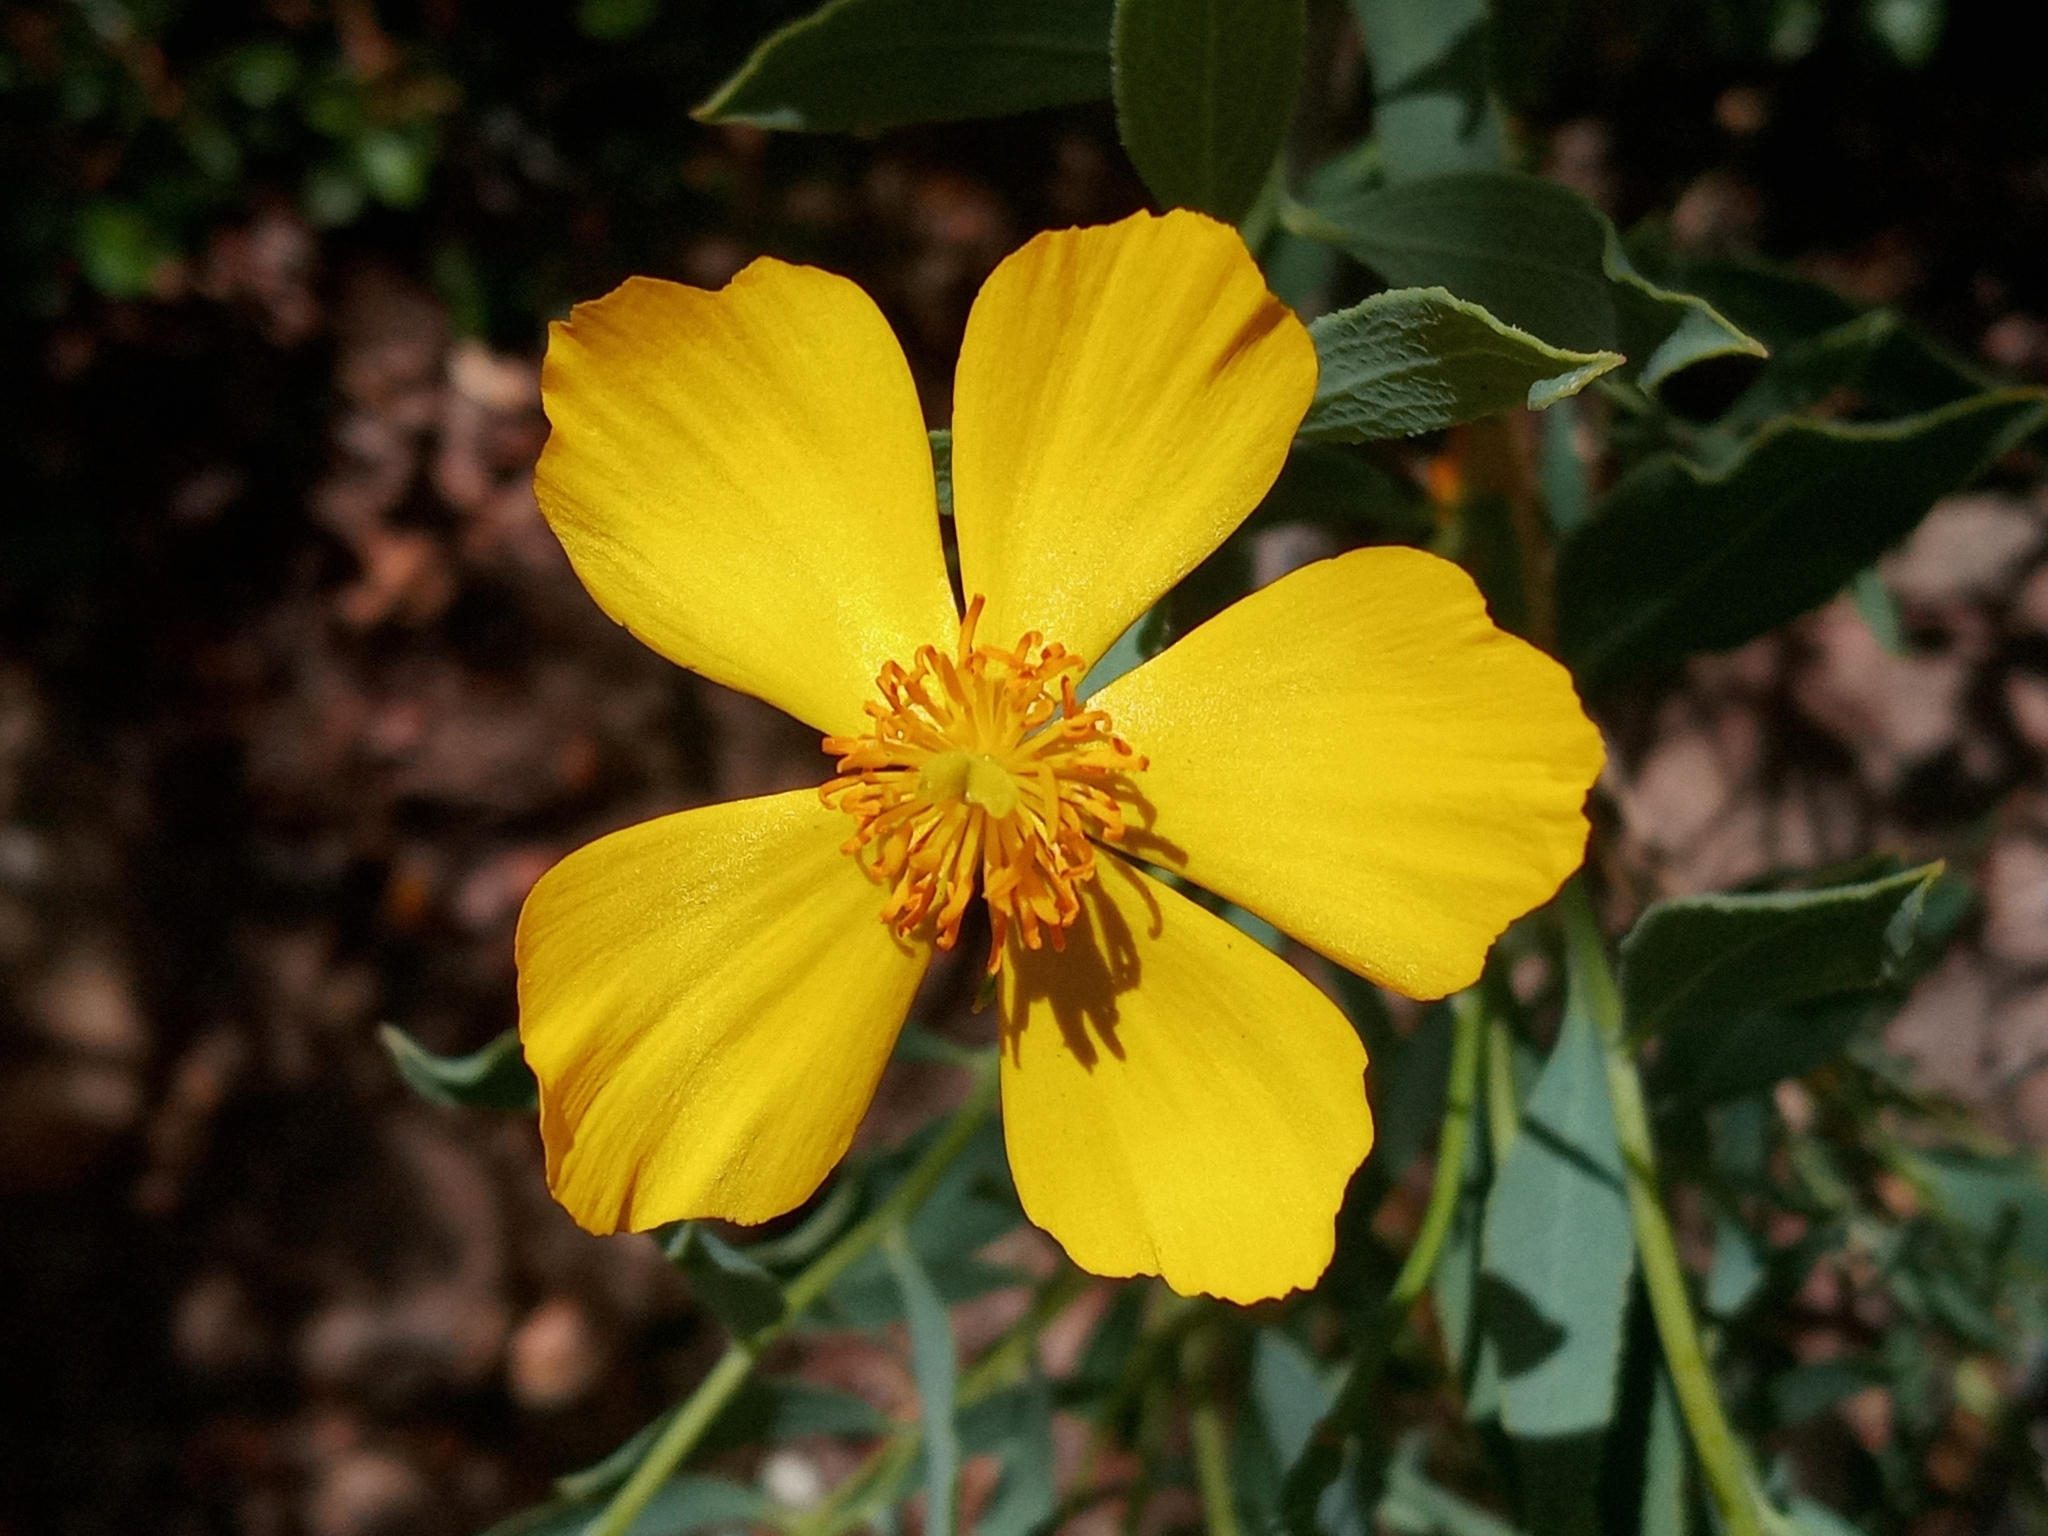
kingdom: Plantae
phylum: Tracheophyta
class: Magnoliopsida
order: Ranunculales
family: Papaveraceae
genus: Dendromecon
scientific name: Dendromecon rigida
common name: Tree poppy
